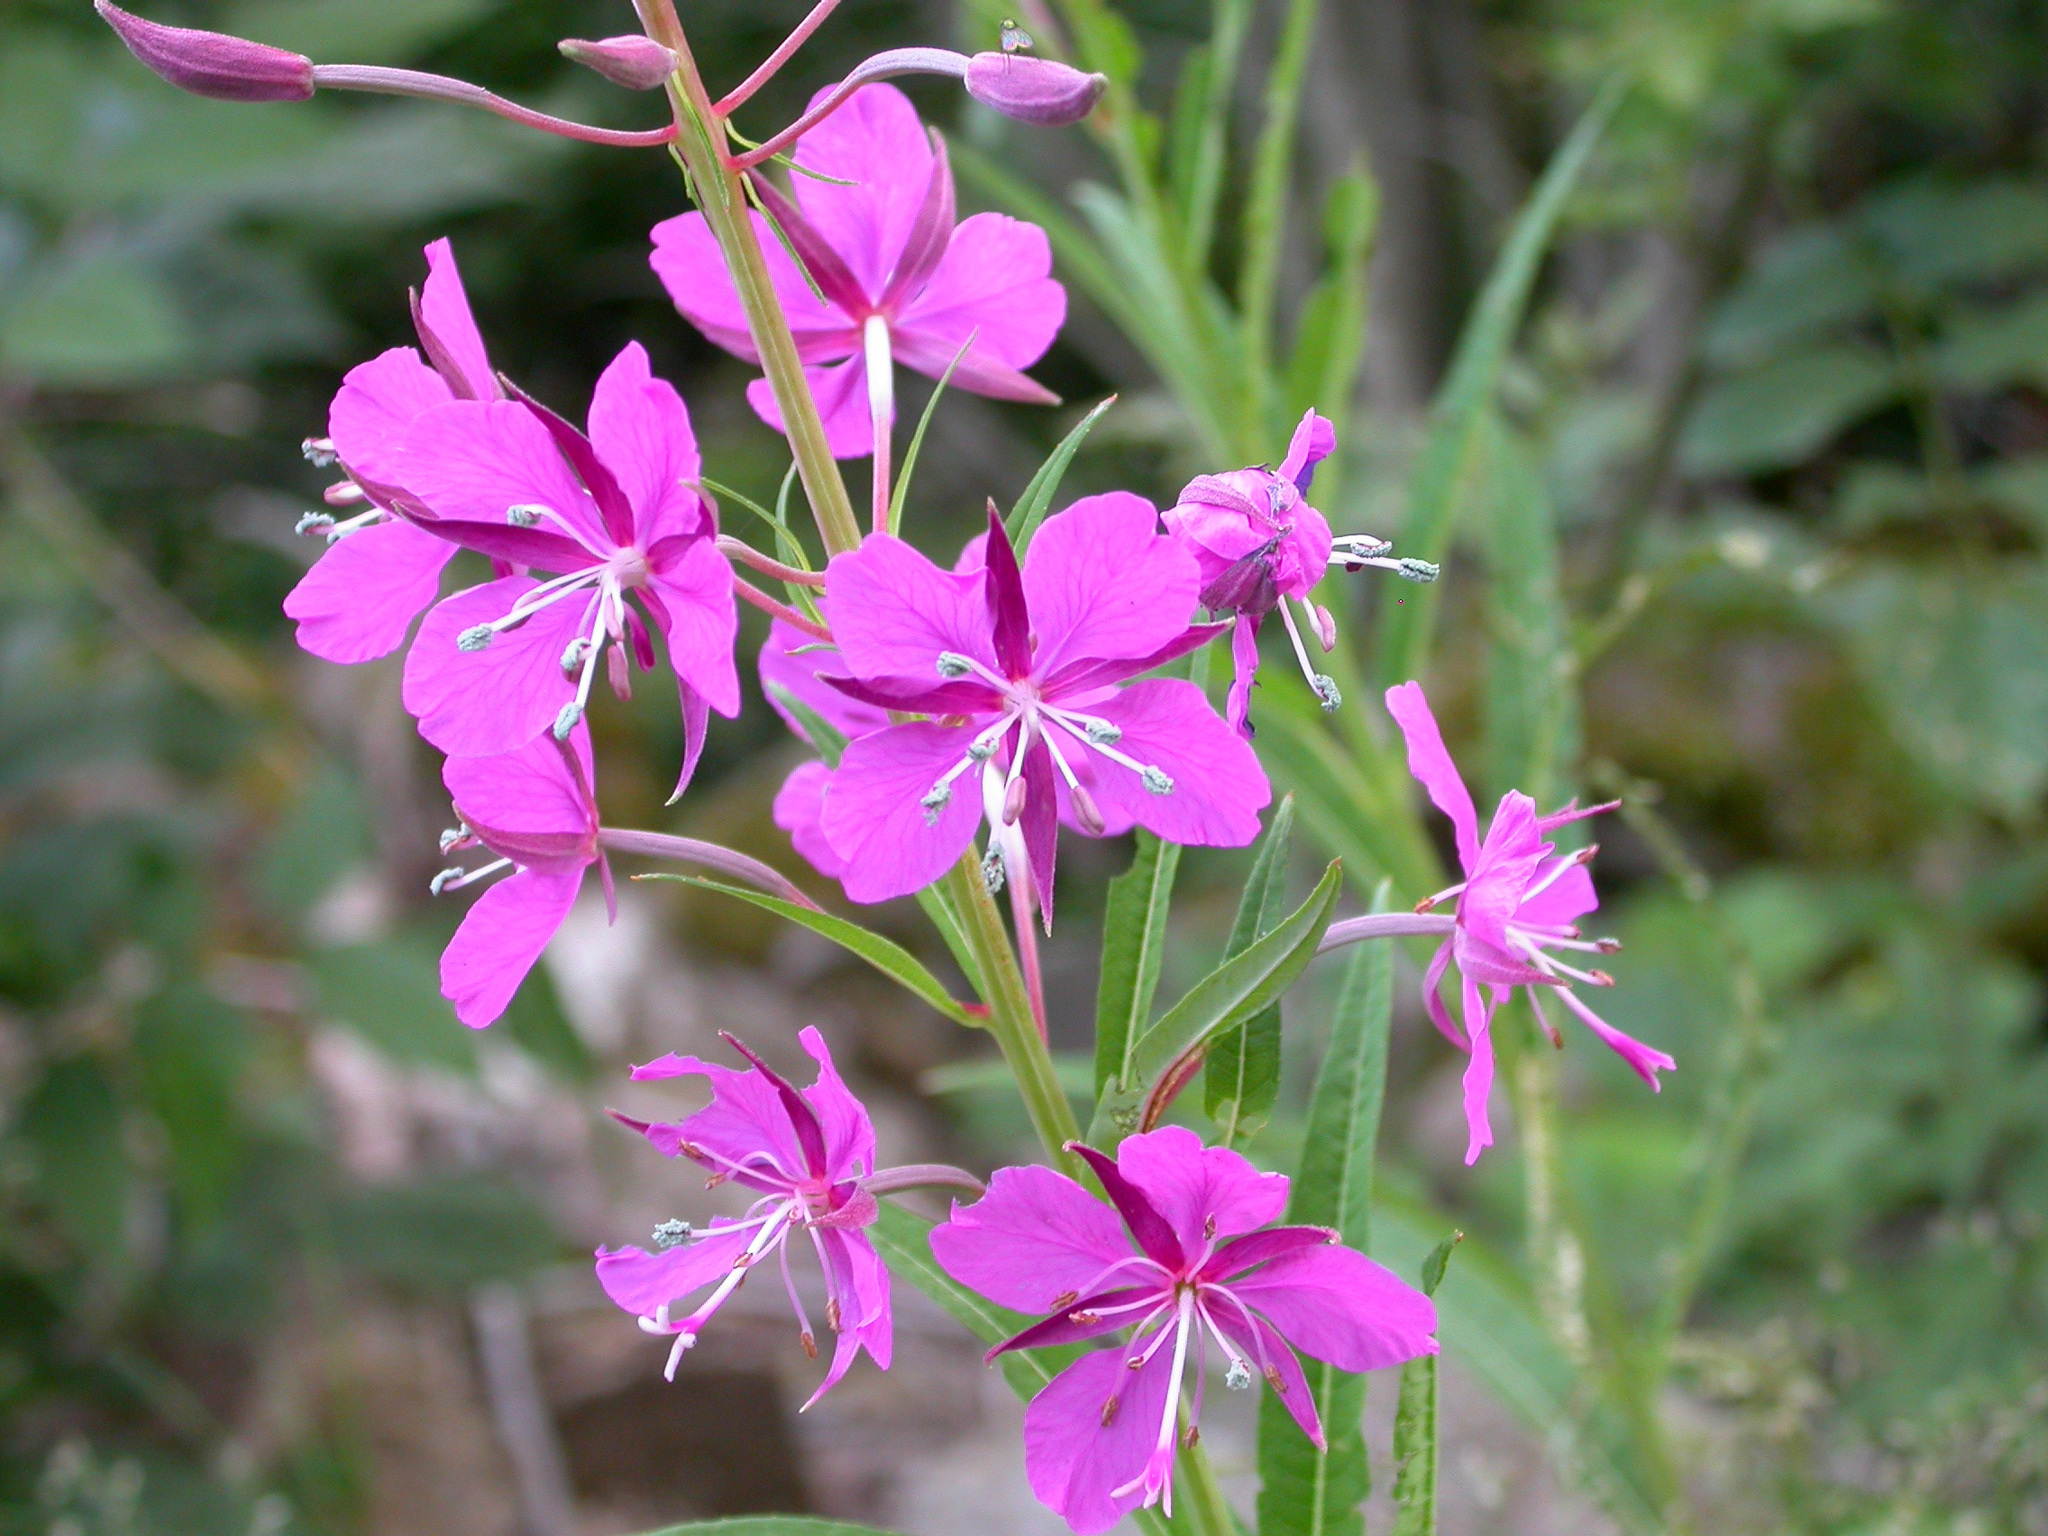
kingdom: Plantae
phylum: Tracheophyta
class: Magnoliopsida
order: Myrtales
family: Onagraceae
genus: Chamaenerion
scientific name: Chamaenerion angustifolium
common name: Fireweed
